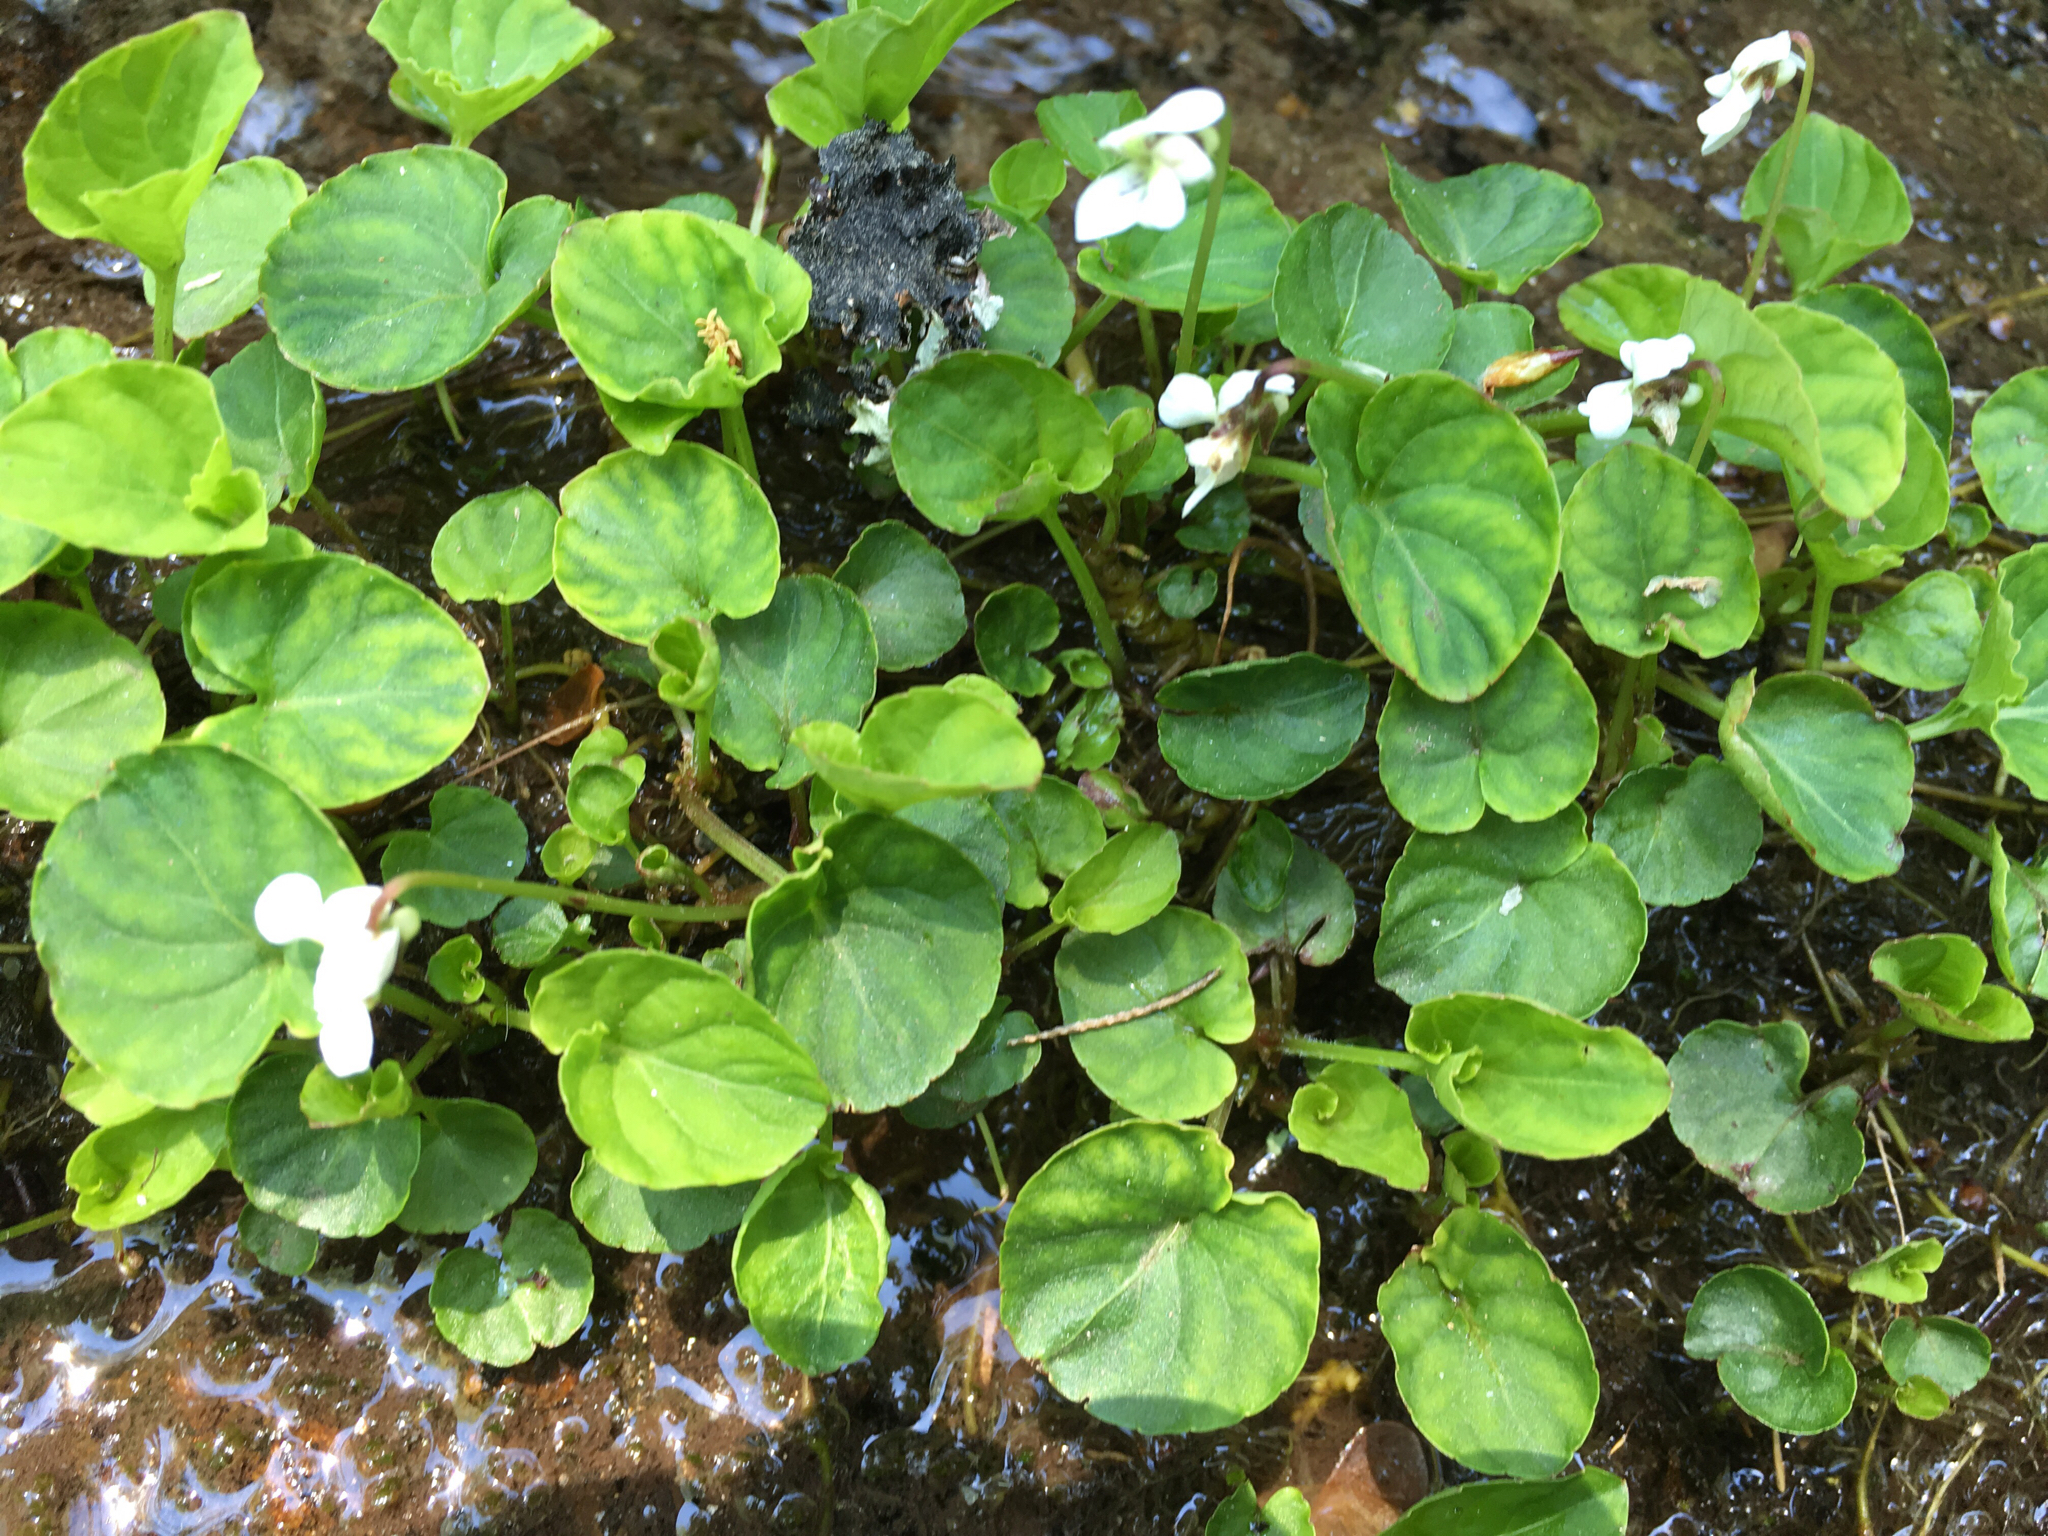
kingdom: Plantae
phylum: Tracheophyta
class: Magnoliopsida
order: Malpighiales
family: Violaceae
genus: Viola
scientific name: Viola minuscula
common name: Northern white violet
